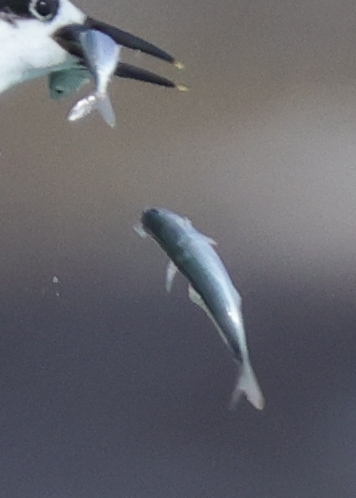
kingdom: Animalia
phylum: Chordata
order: Elopiformes
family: Elopidae
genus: Elops
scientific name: Elops saurus
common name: Ladyfish
